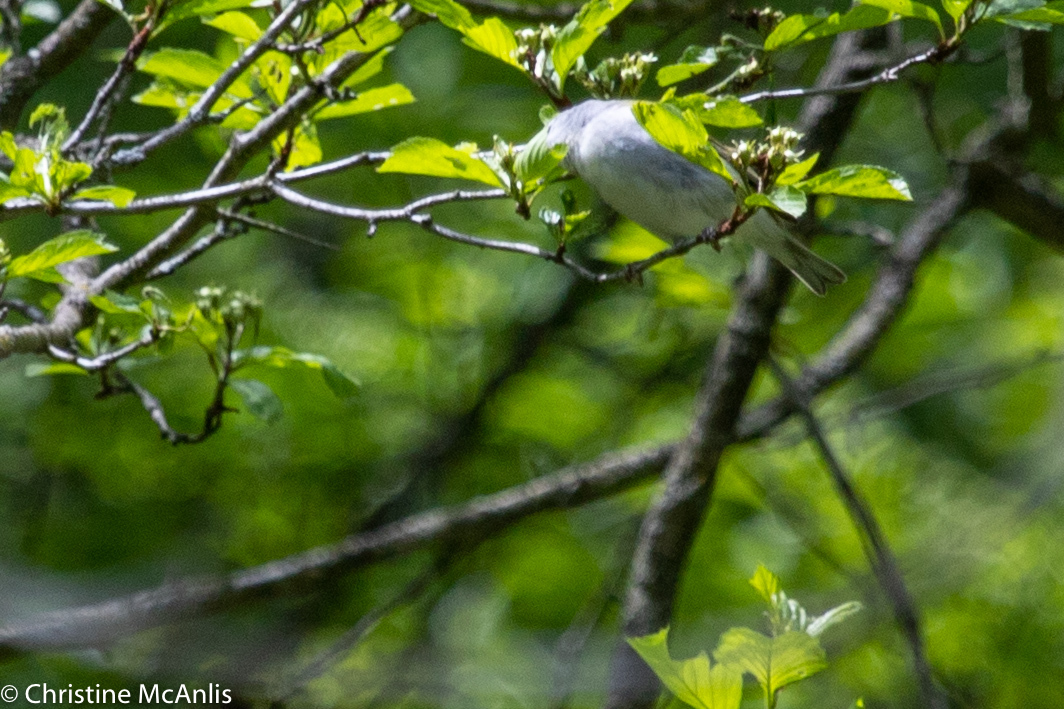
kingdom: Animalia
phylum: Chordata
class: Aves
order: Passeriformes
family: Parulidae
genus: Leiothlypis
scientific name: Leiothlypis peregrina
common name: Tennessee warbler
